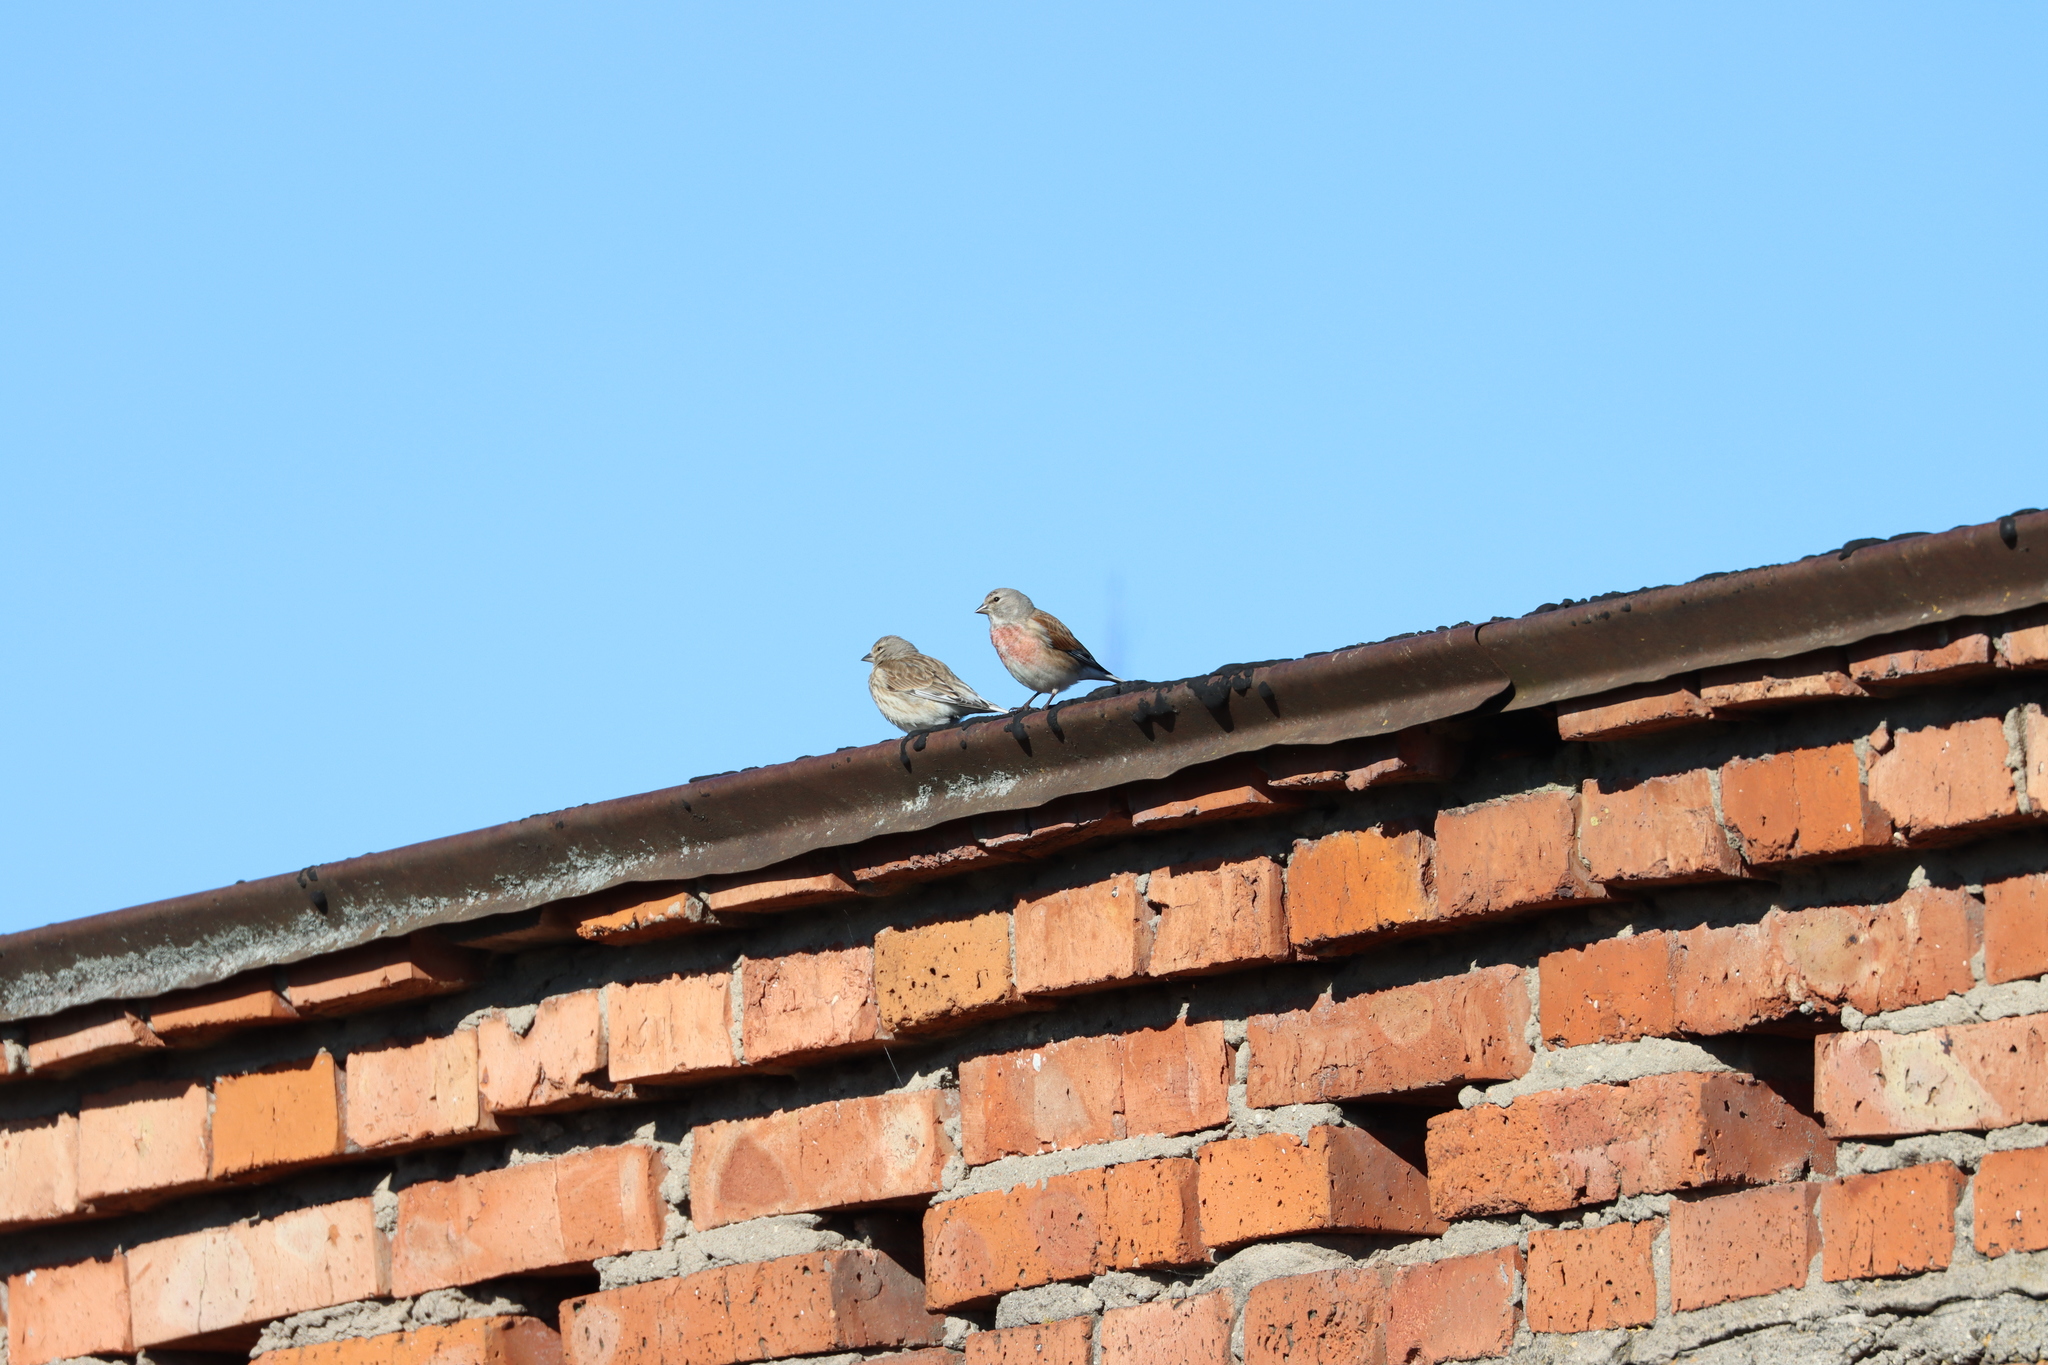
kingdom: Animalia
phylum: Chordata
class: Aves
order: Passeriformes
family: Fringillidae
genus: Linaria
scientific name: Linaria cannabina
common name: Common linnet
